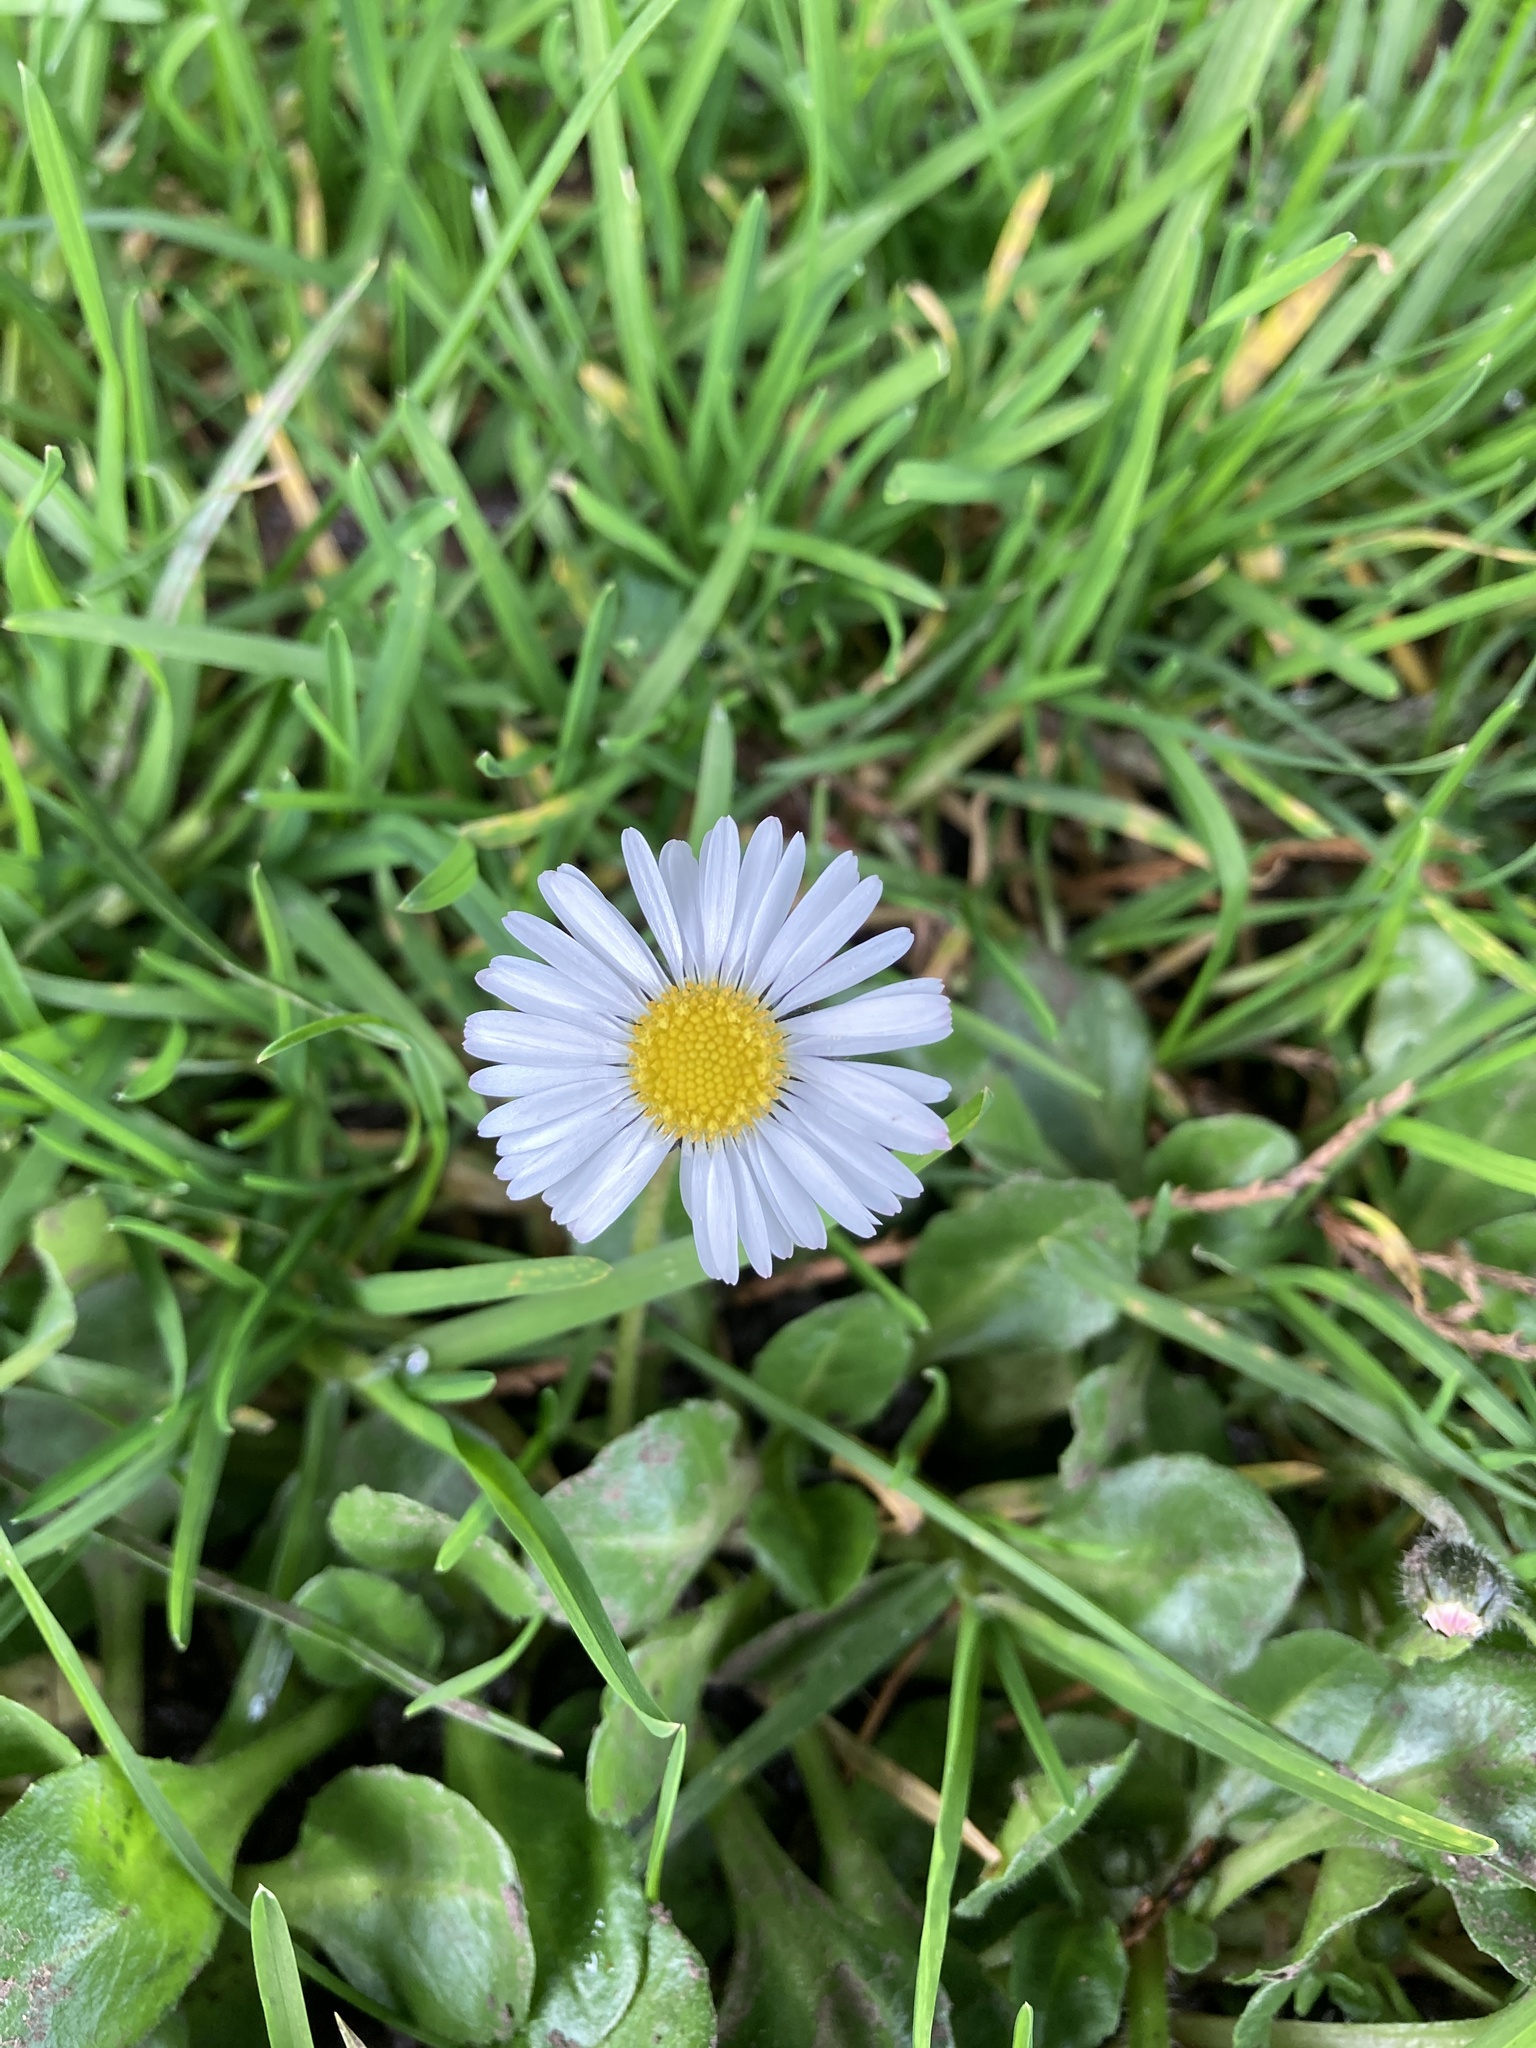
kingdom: Plantae
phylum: Tracheophyta
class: Magnoliopsida
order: Asterales
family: Asteraceae
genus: Bellis
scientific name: Bellis perennis
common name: Lawndaisy
